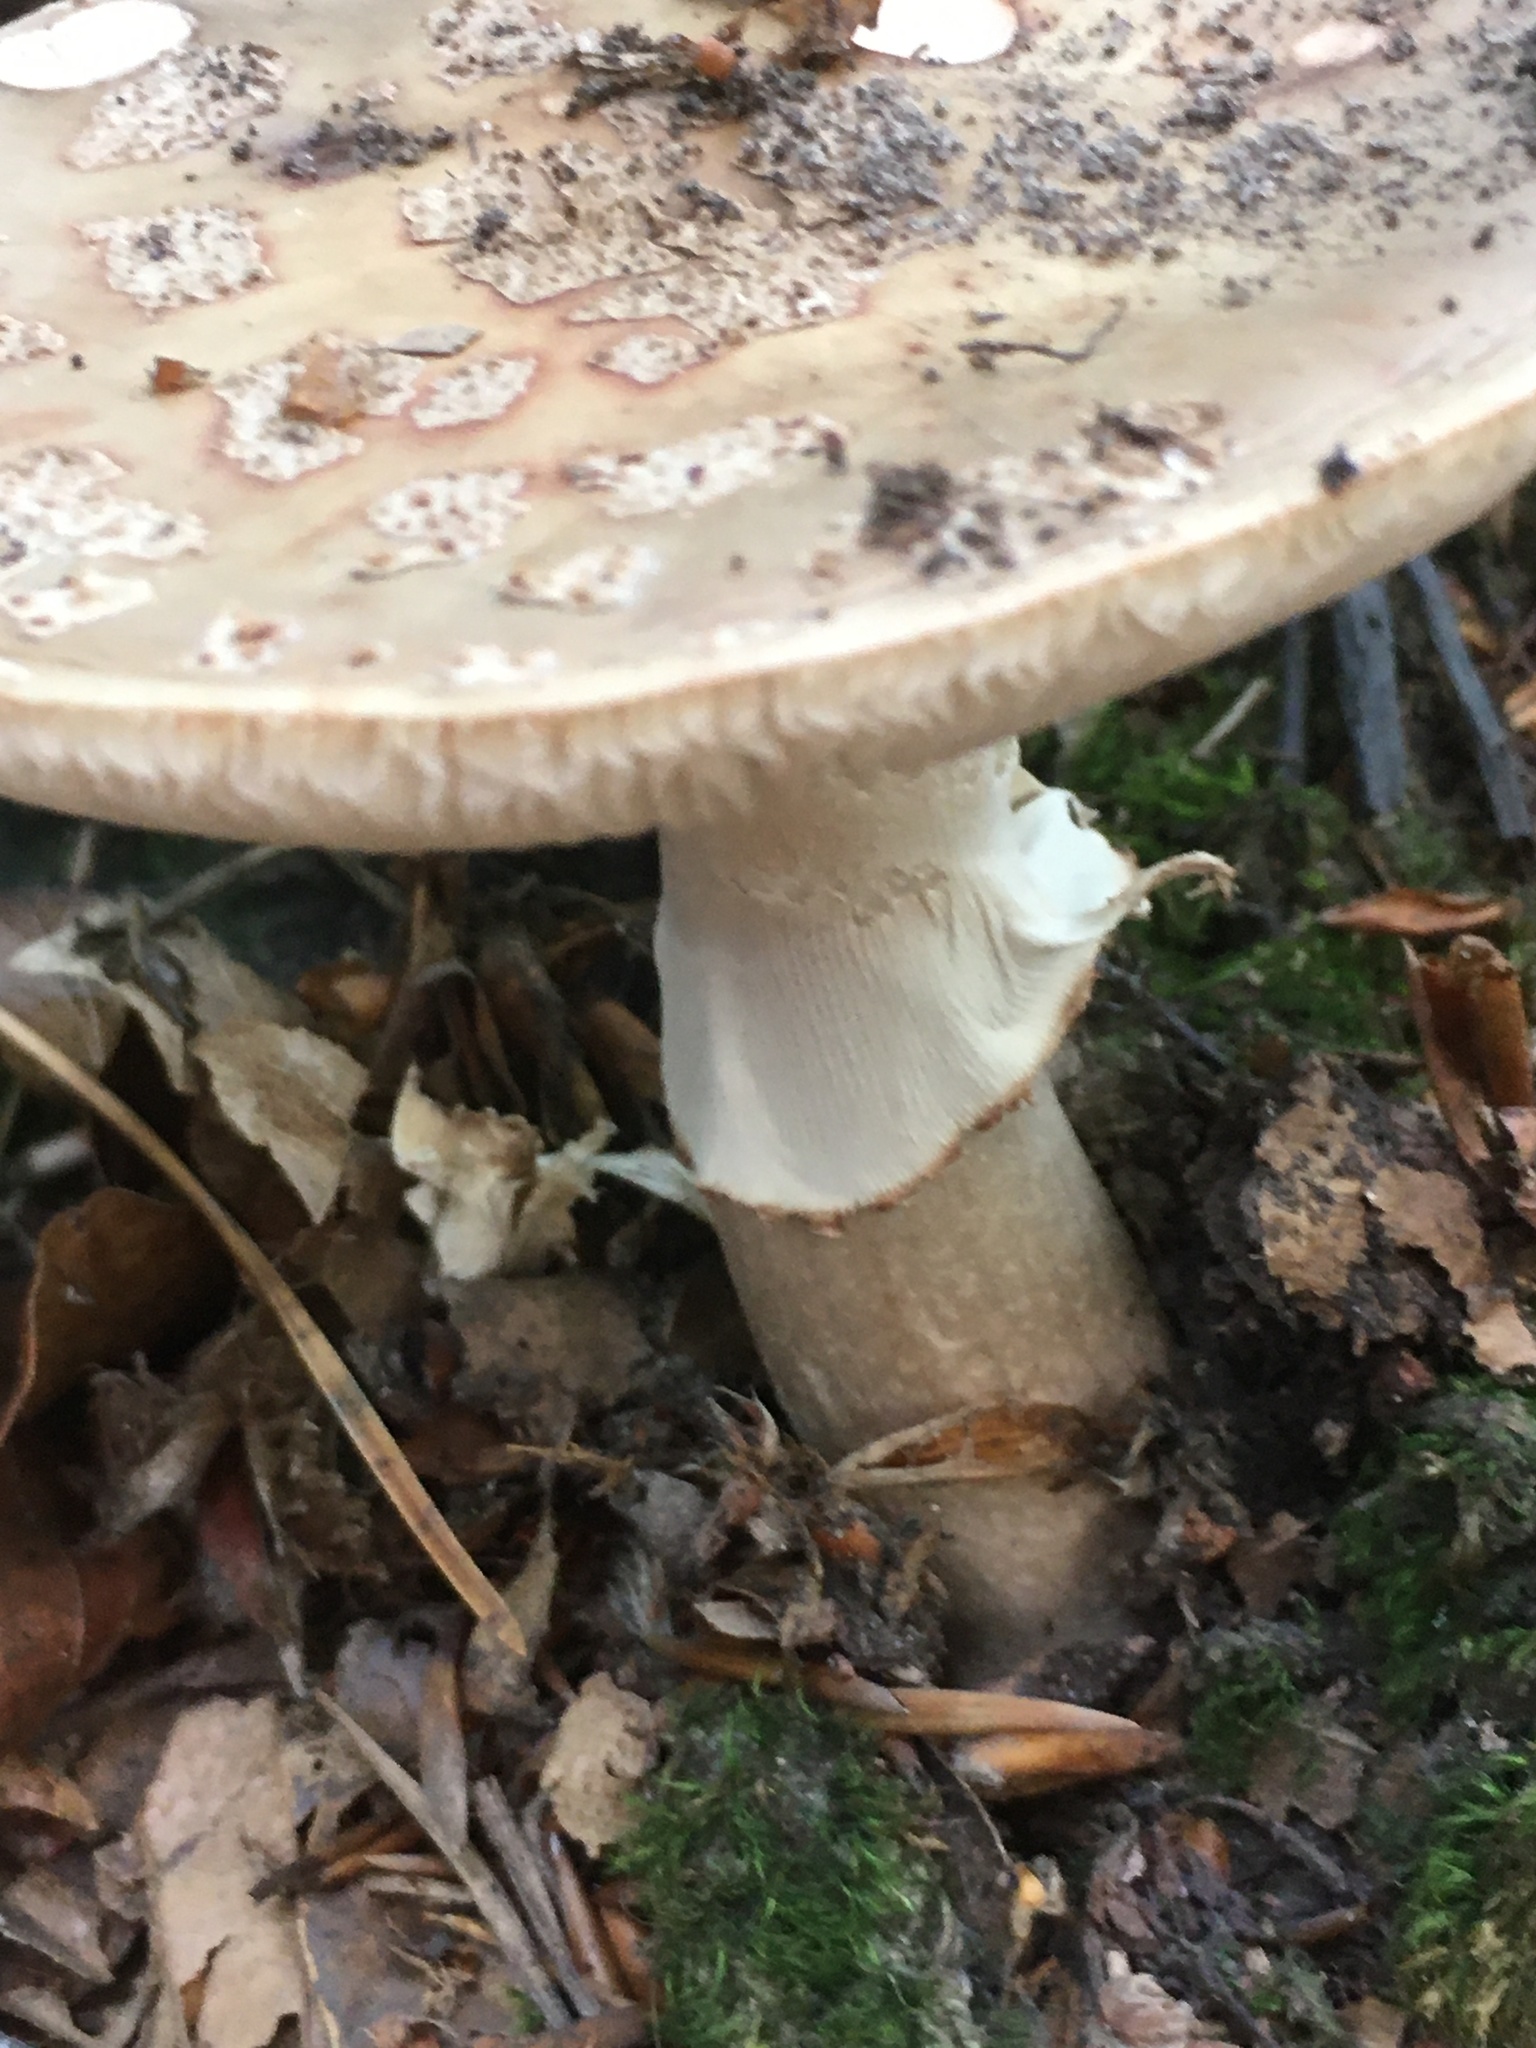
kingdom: Fungi
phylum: Basidiomycota
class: Agaricomycetes
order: Agaricales
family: Amanitaceae
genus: Amanita
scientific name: Amanita rubescens
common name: Blusher
